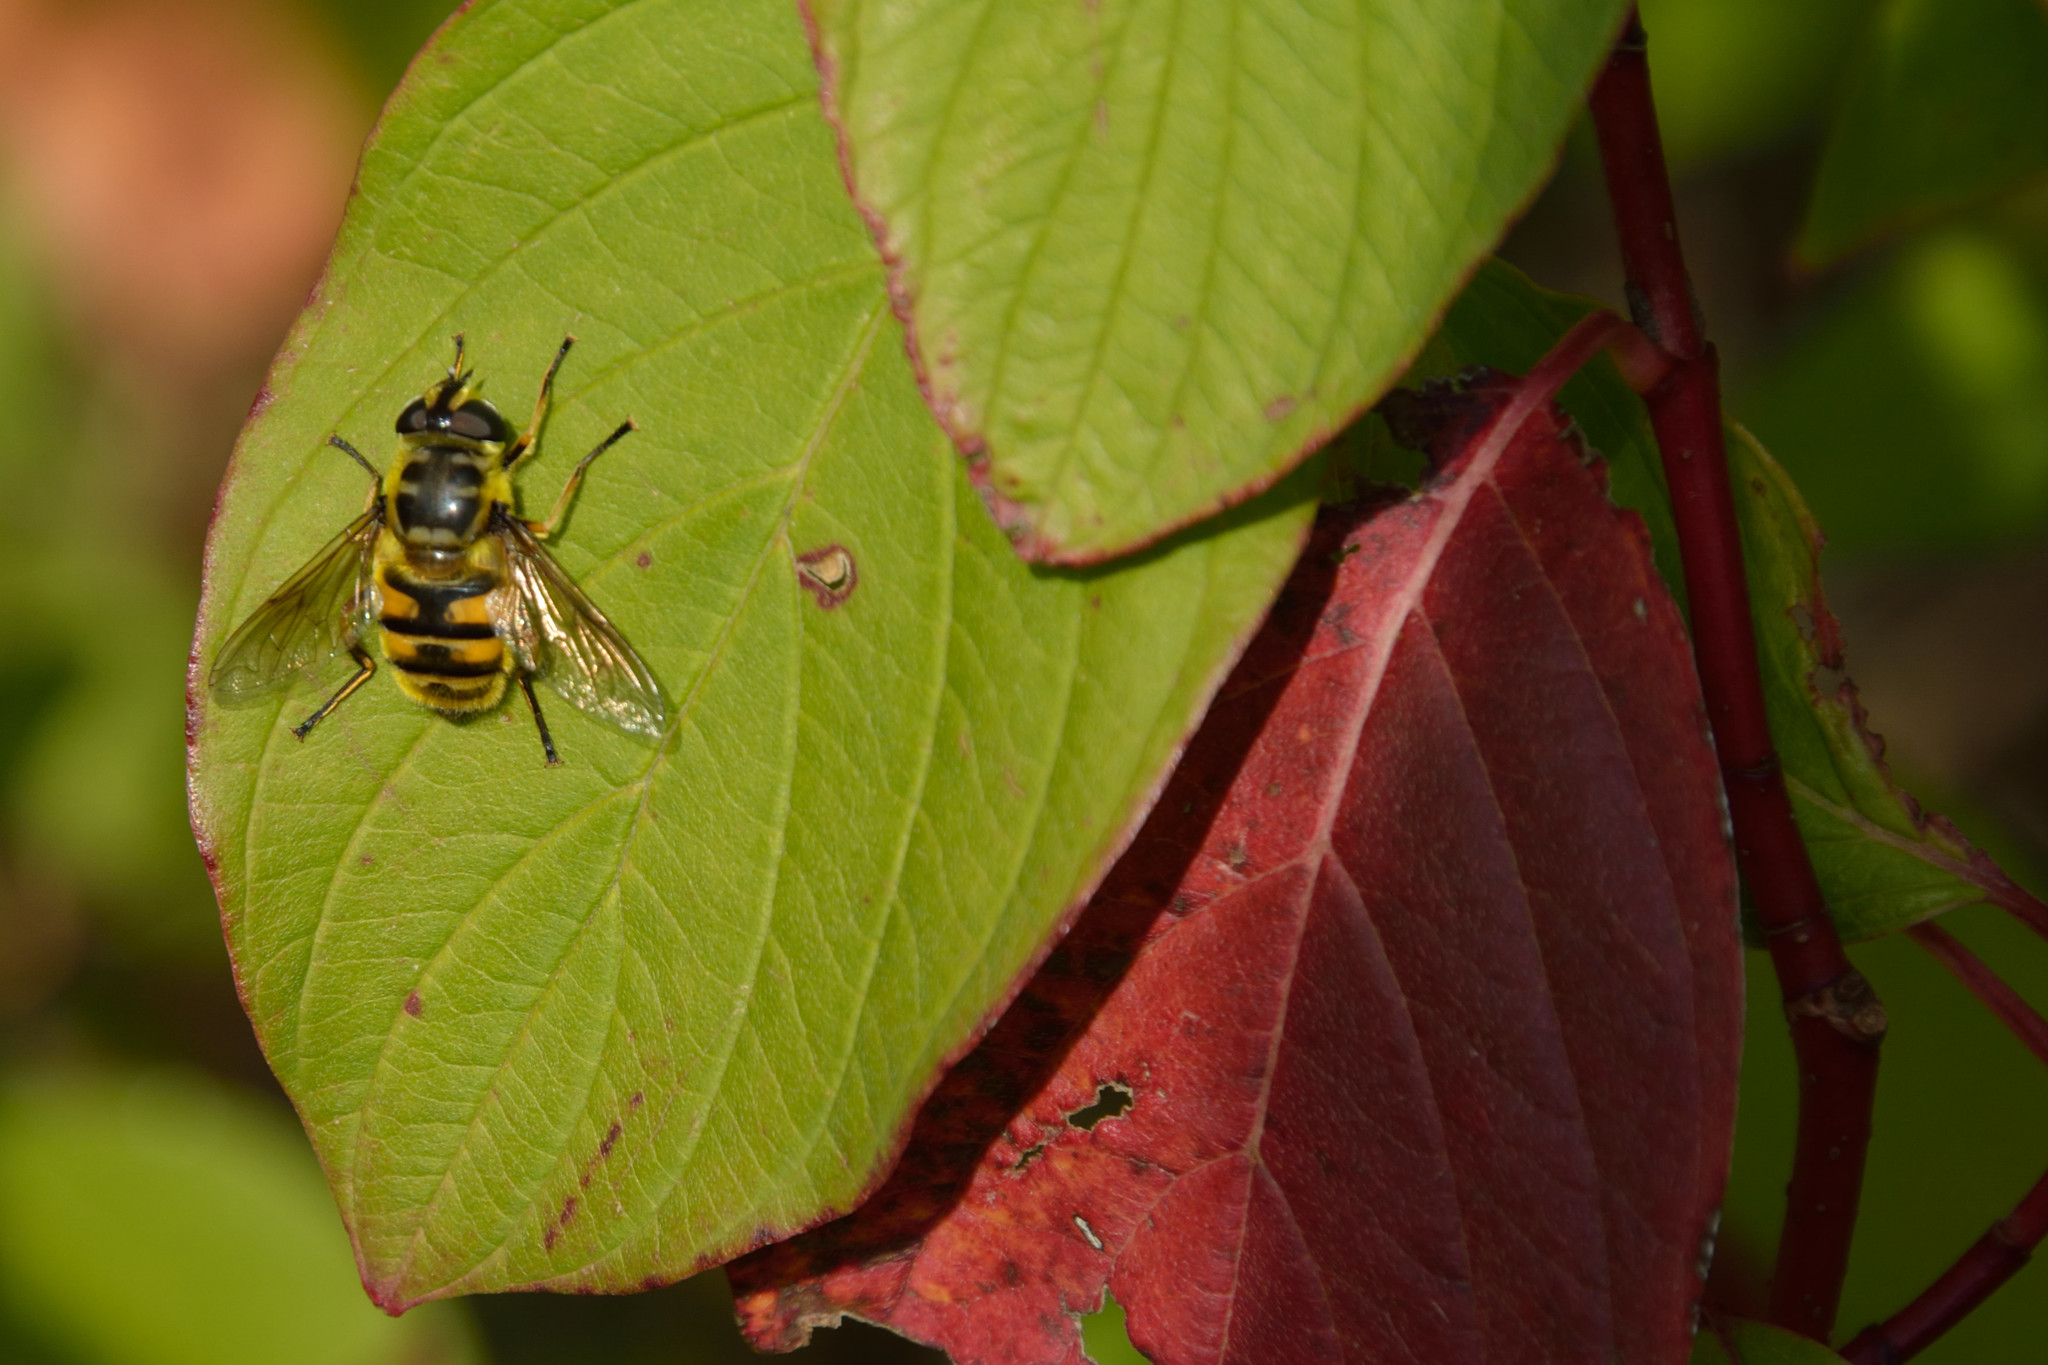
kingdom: Animalia
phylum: Arthropoda
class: Insecta
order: Diptera
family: Syrphidae
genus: Myathropa
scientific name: Myathropa florea
